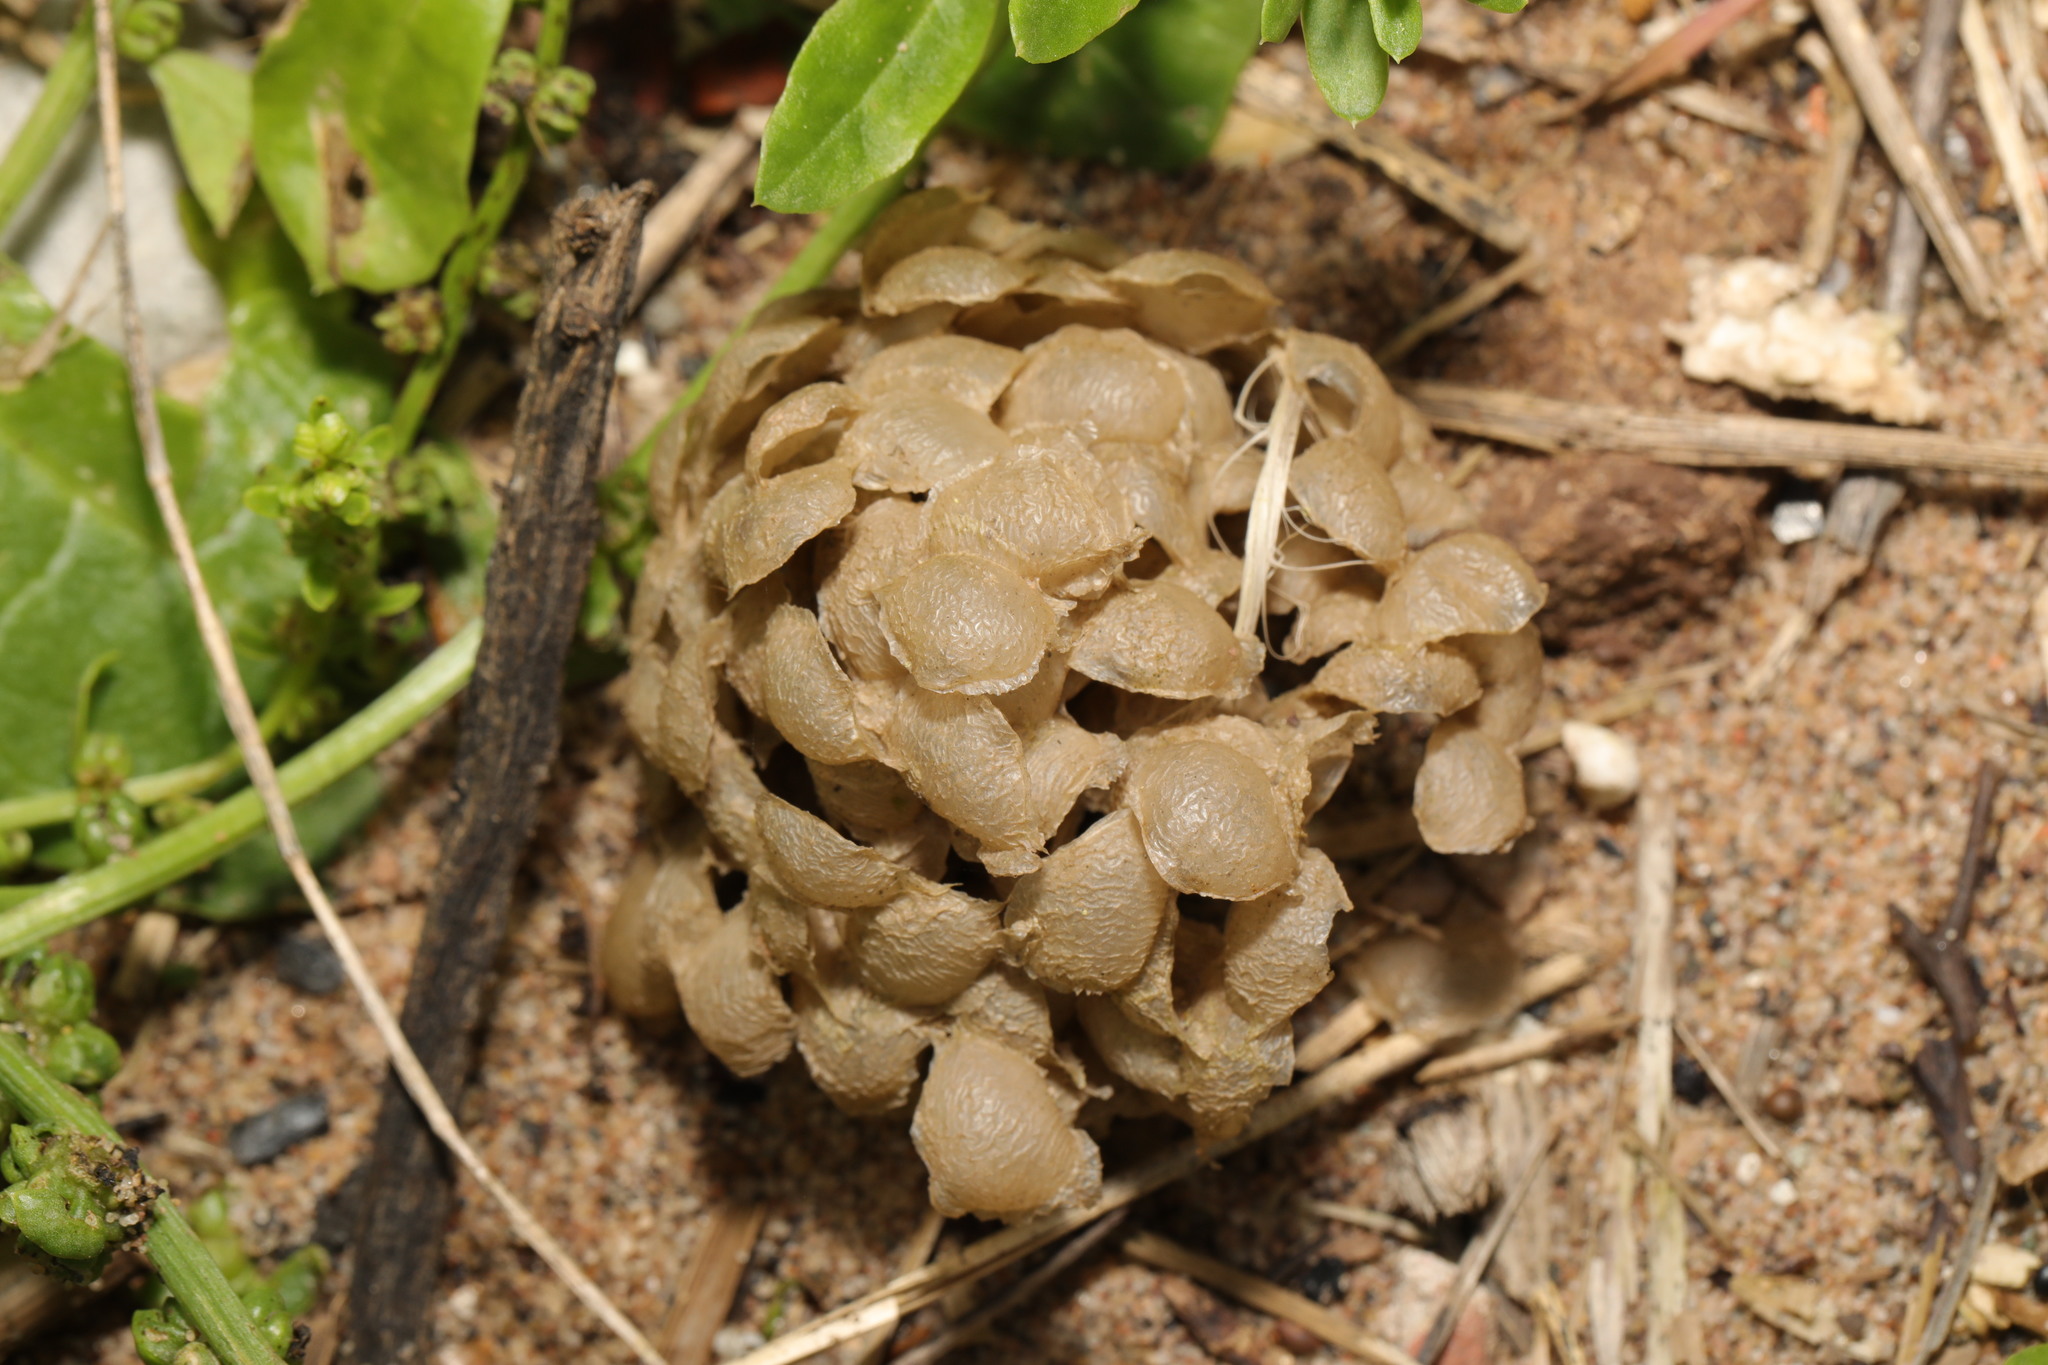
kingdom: Animalia
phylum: Mollusca
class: Gastropoda
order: Neogastropoda
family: Buccinidae
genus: Buccinum
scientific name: Buccinum undatum
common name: Common whelk
